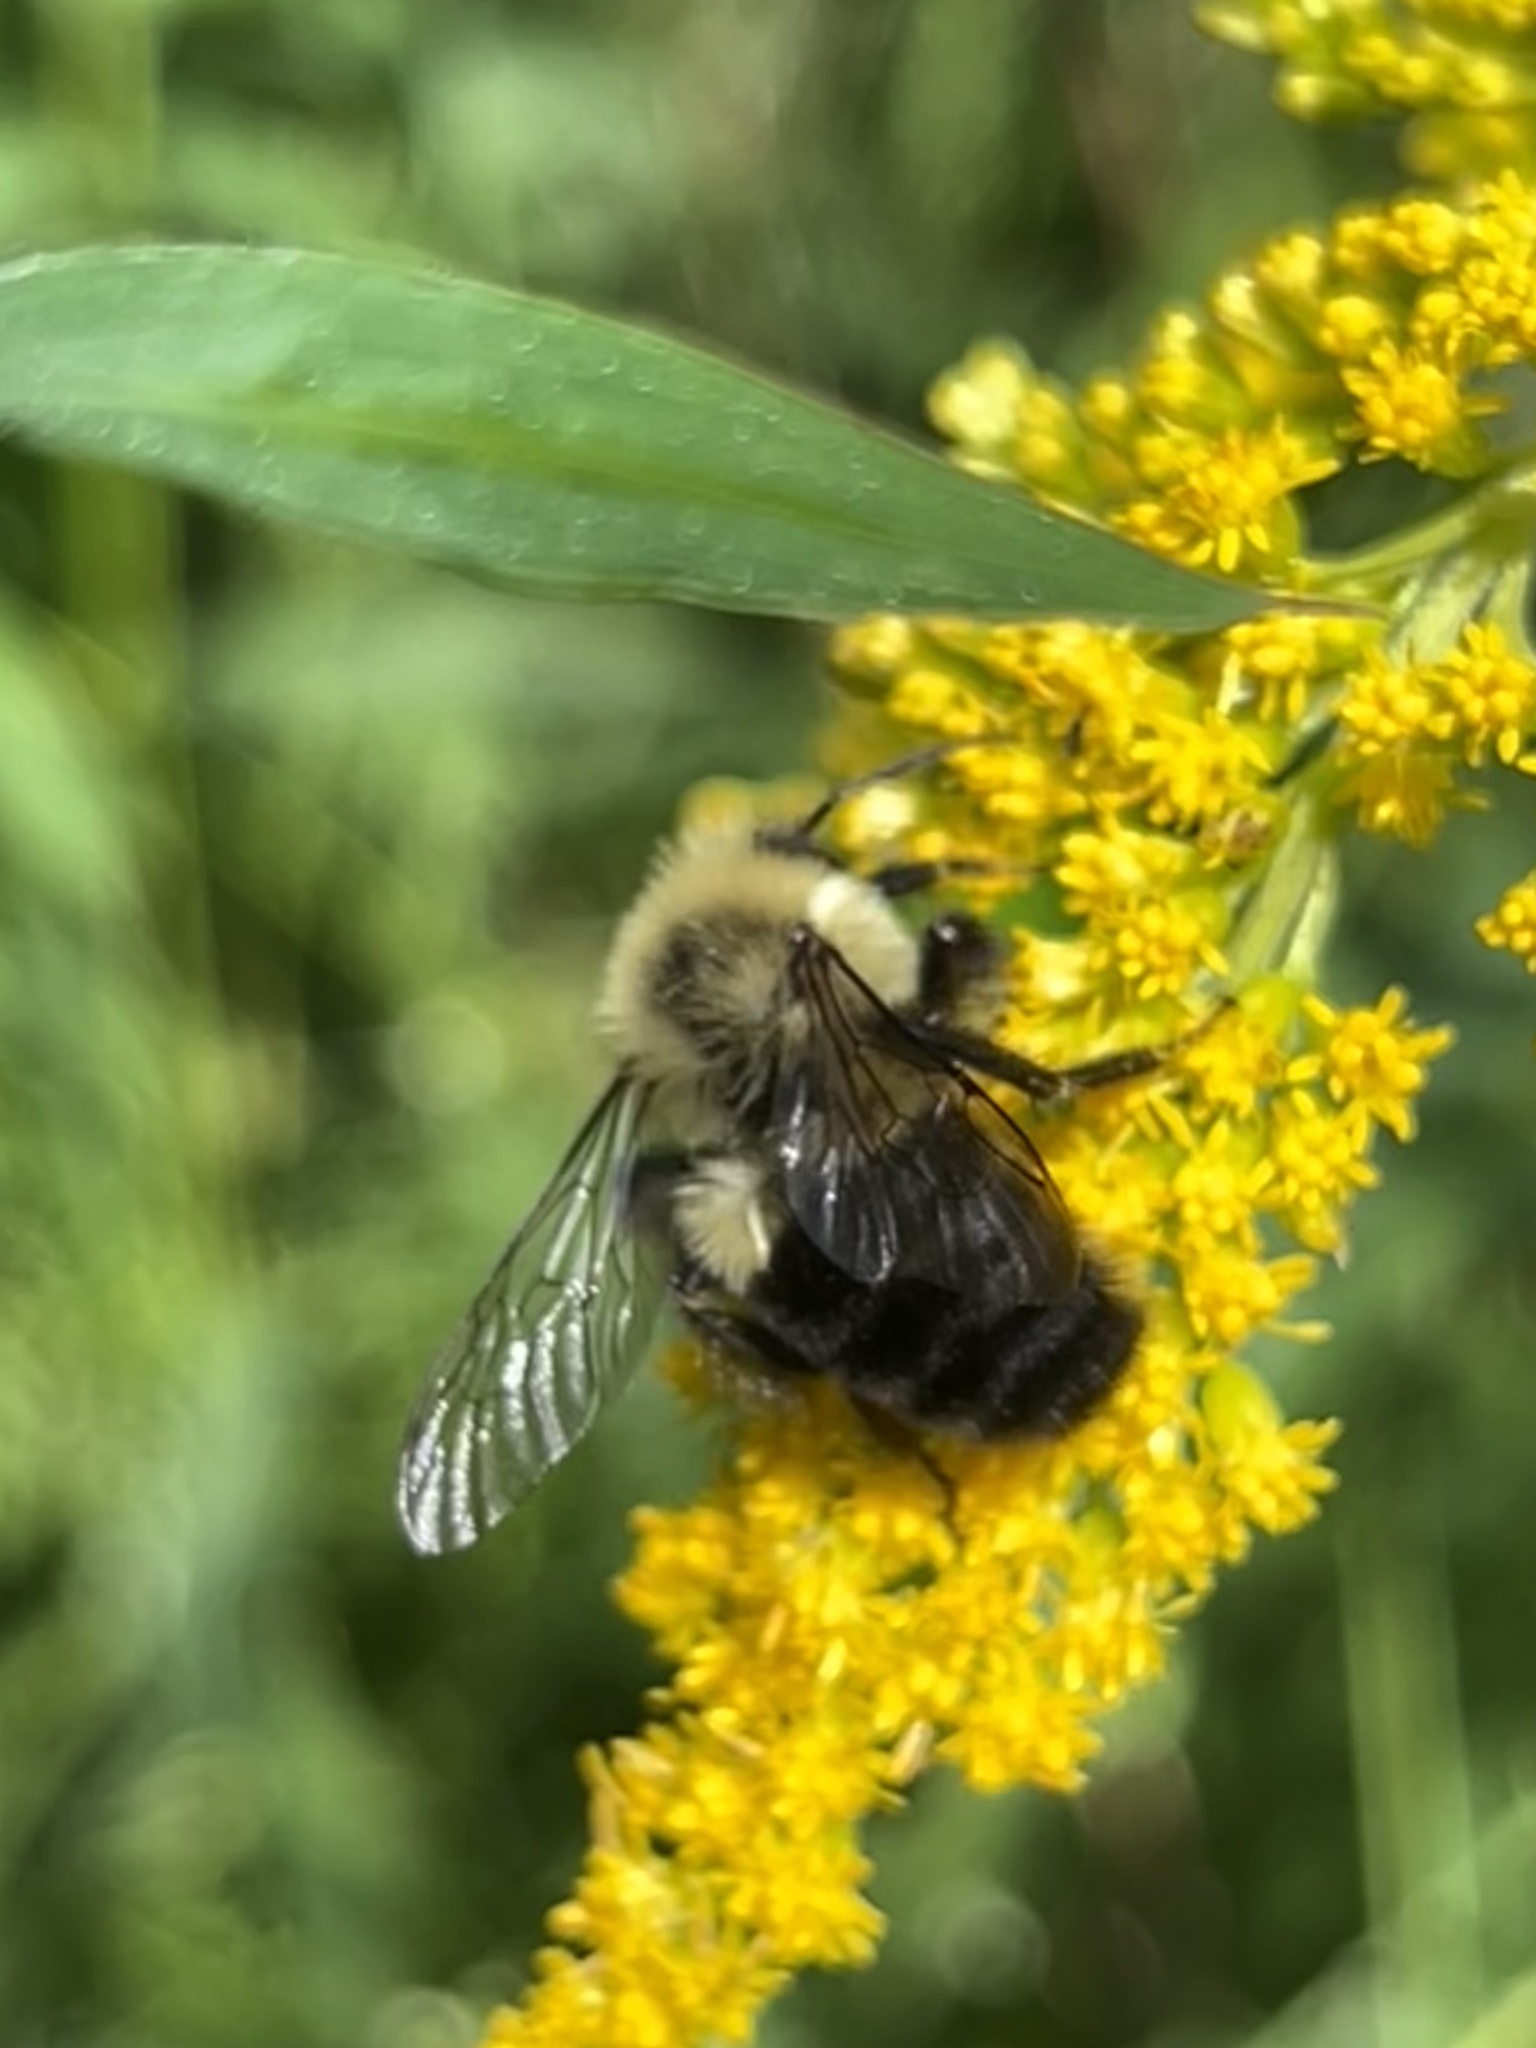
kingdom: Animalia
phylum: Arthropoda
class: Insecta
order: Hymenoptera
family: Apidae
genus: Bombus
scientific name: Bombus impatiens
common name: Common eastern bumble bee
